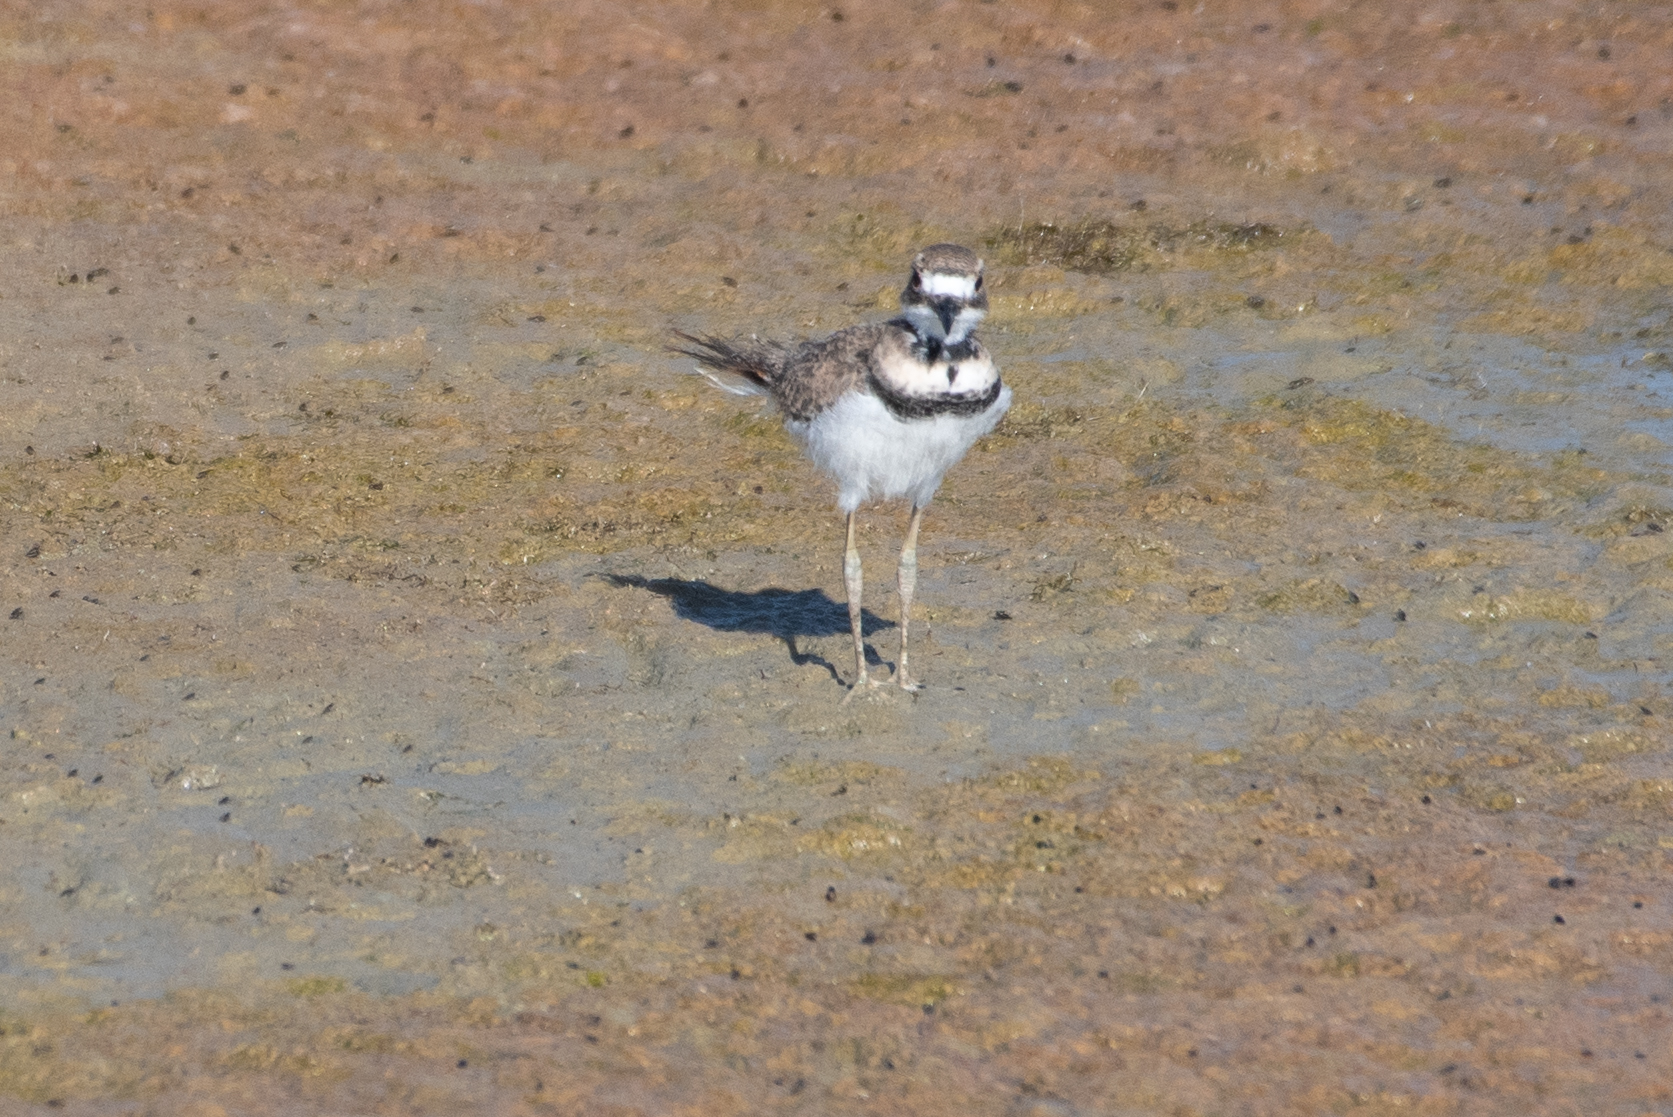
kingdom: Animalia
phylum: Chordata
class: Aves
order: Charadriiformes
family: Charadriidae
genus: Charadrius
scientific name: Charadrius vociferus
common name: Killdeer
